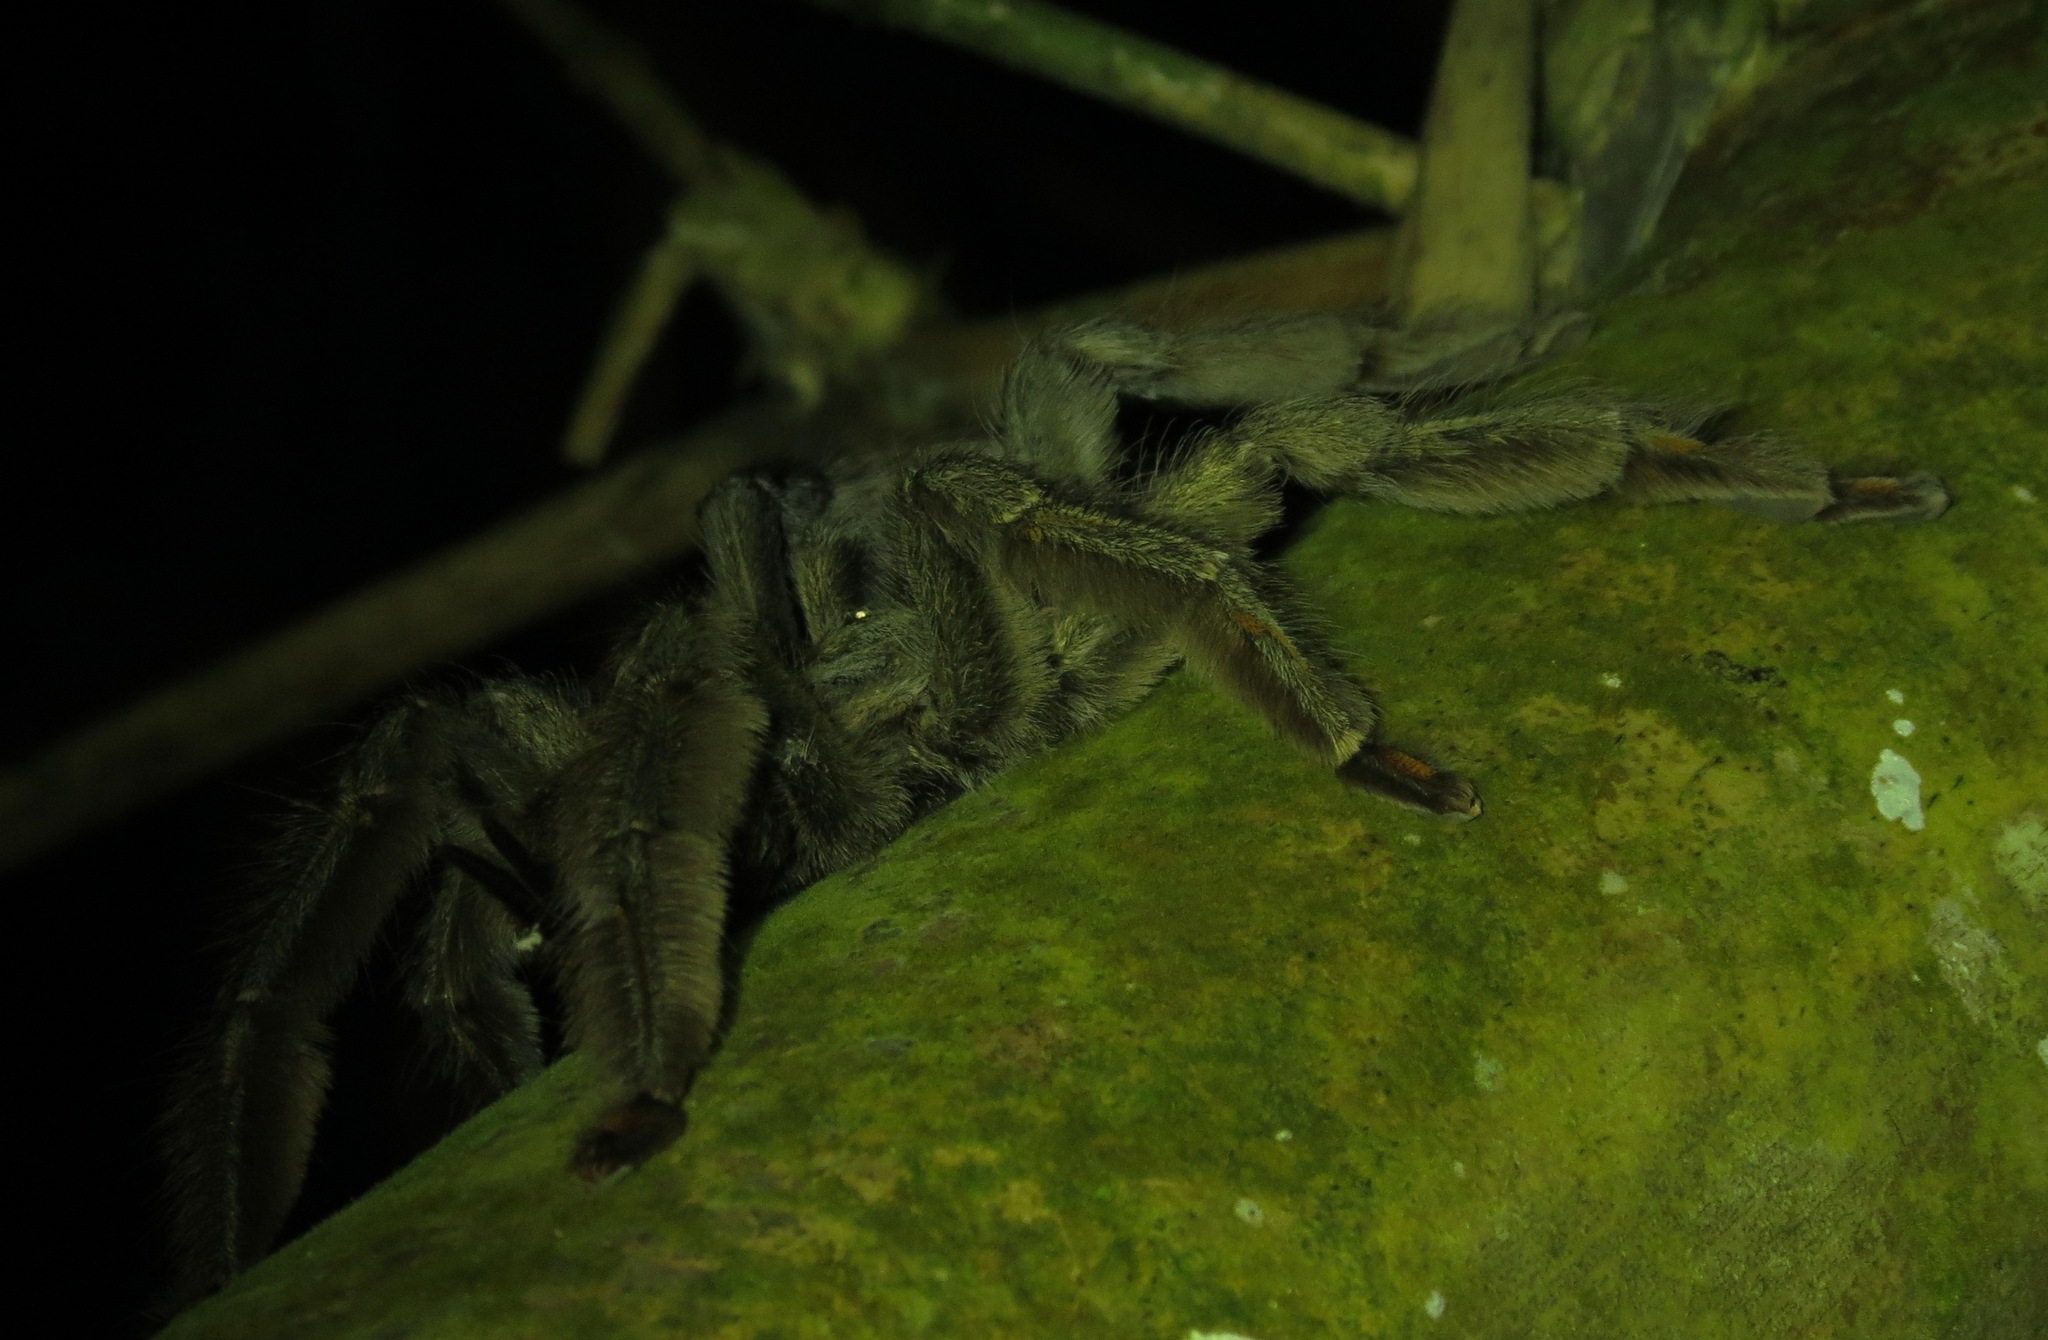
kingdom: Animalia
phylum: Arthropoda
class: Arachnida
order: Araneae
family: Theraphosidae
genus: Psalmopoeus
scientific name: Psalmopoeus cambridgei
